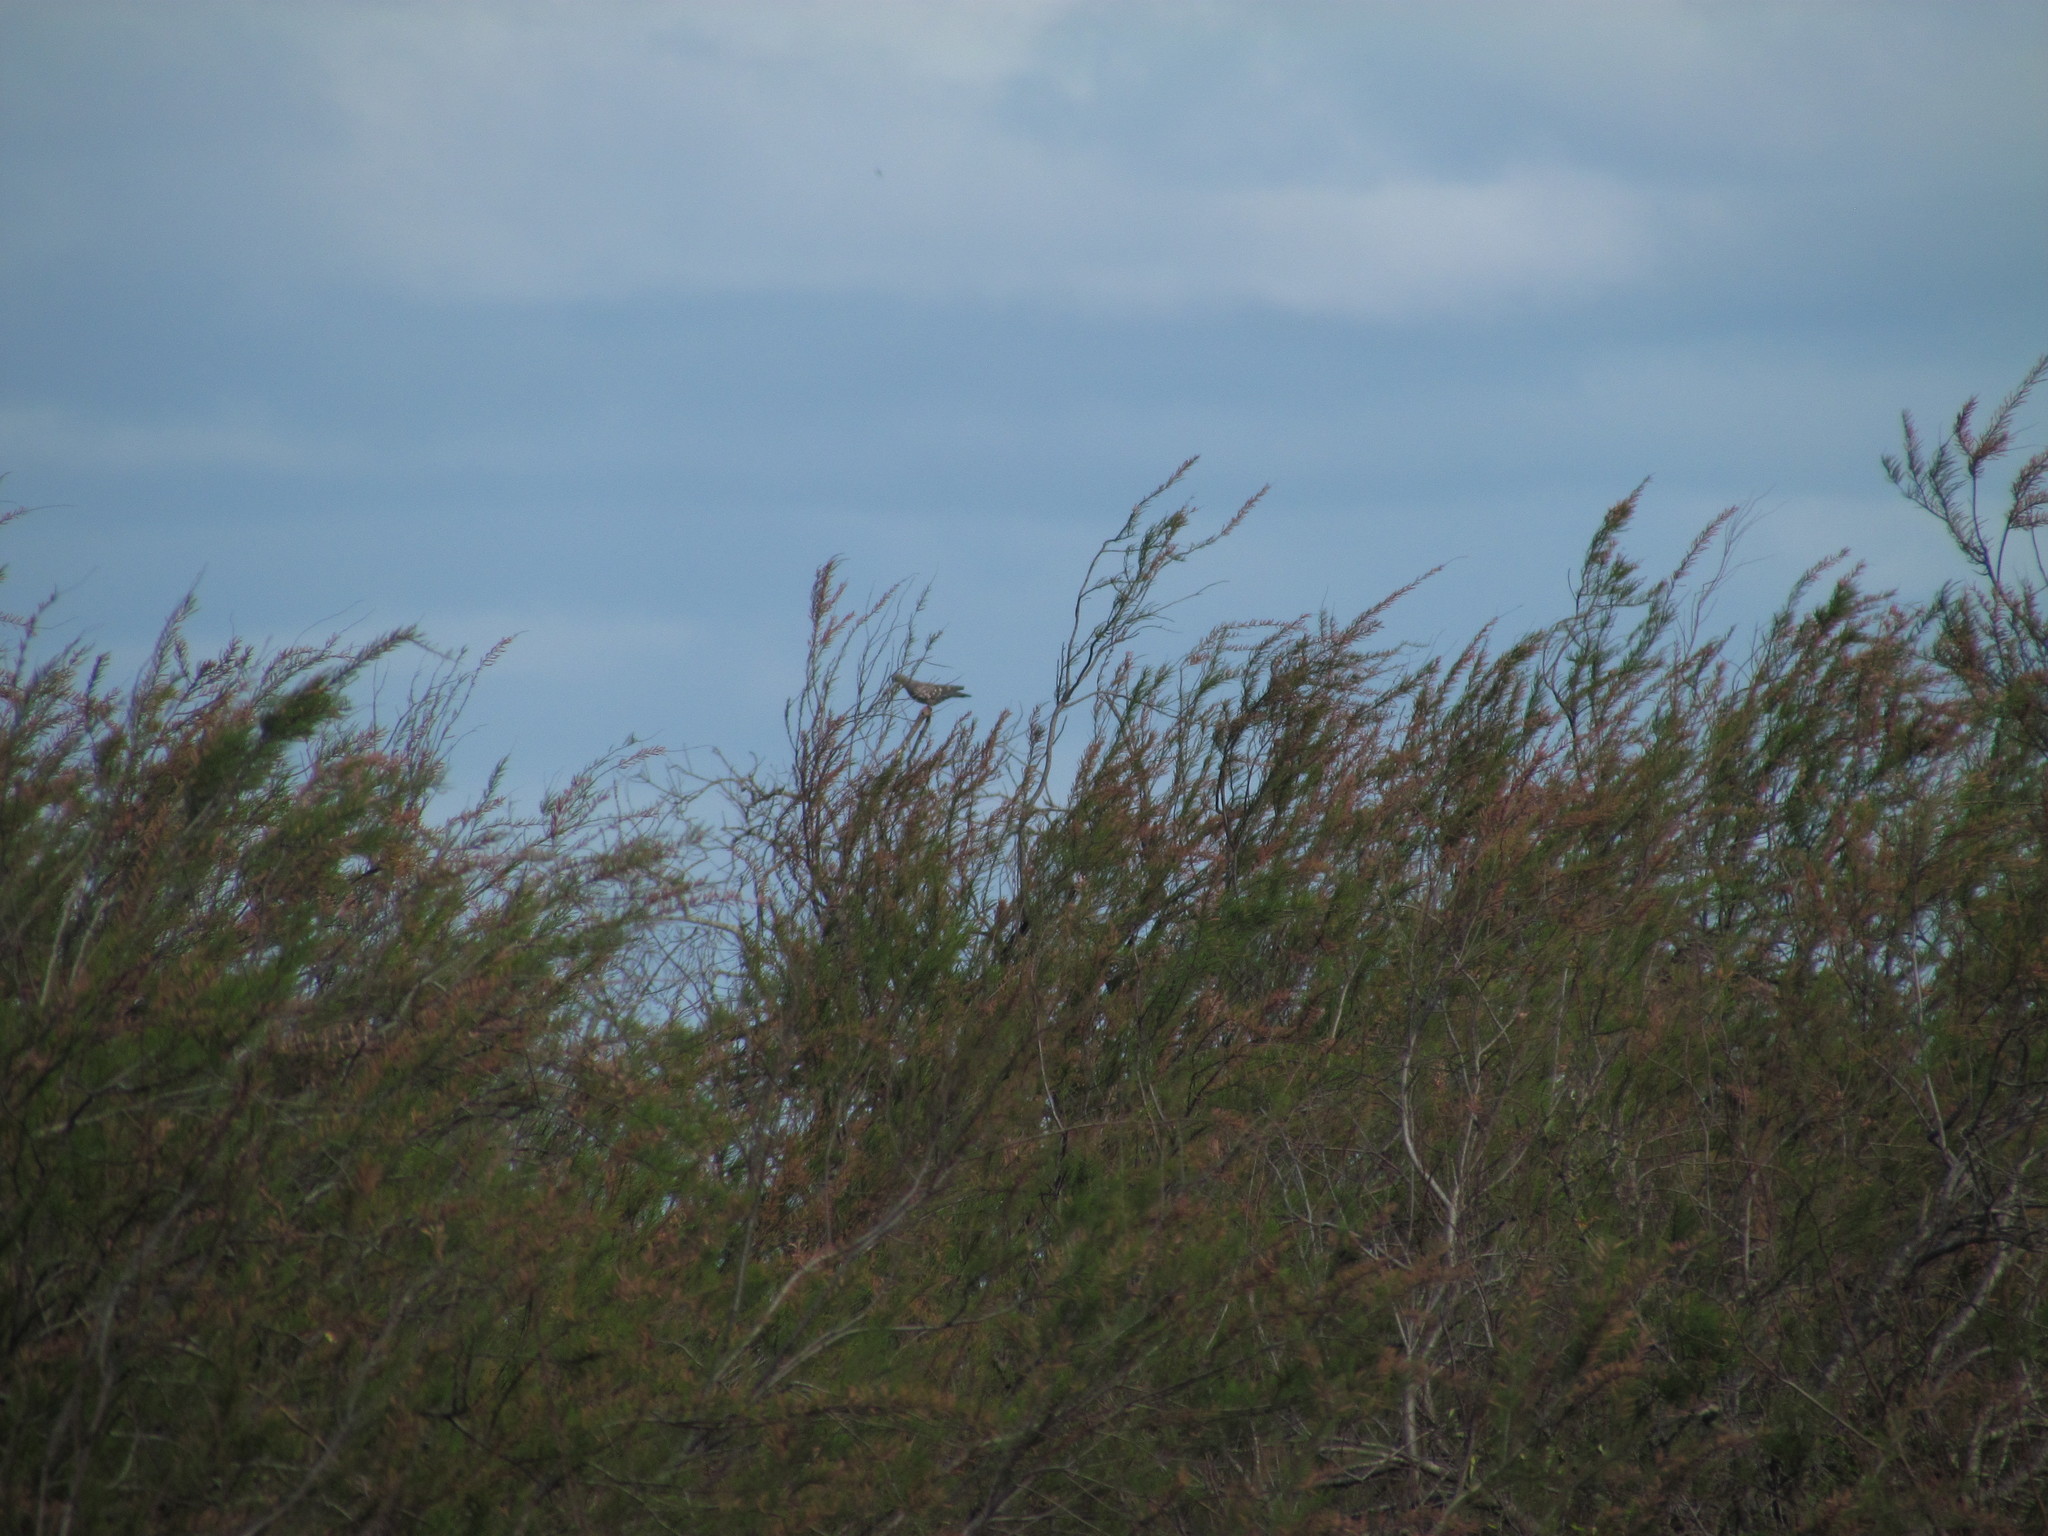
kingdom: Animalia
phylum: Chordata
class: Aves
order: Columbiformes
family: Columbidae
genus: Patagioenas
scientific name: Patagioenas maculosa
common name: Spot-winged pigeon
